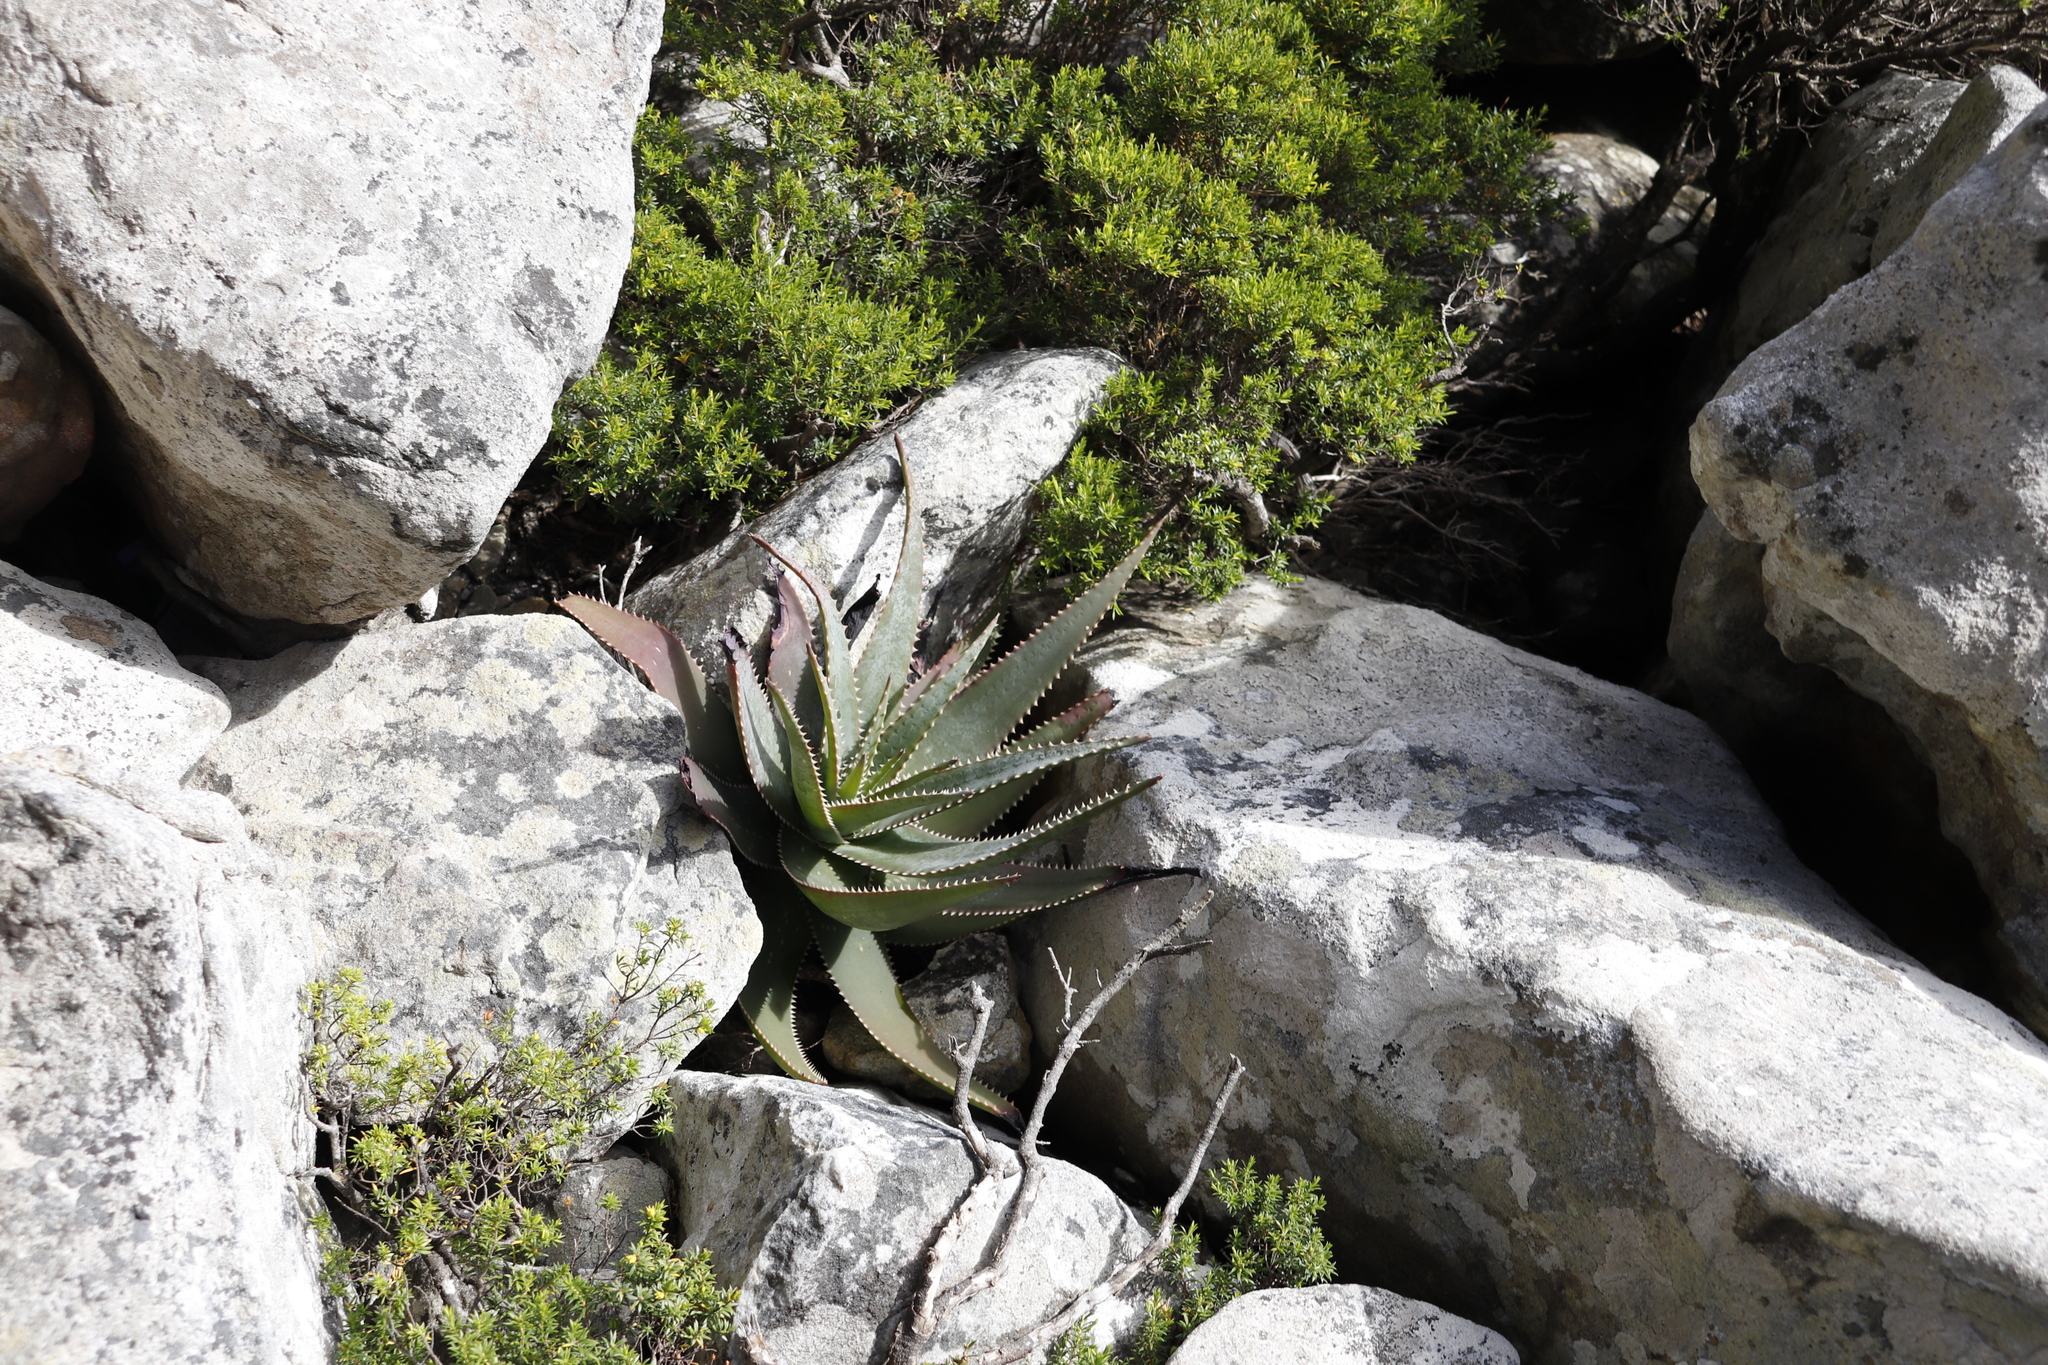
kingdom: Plantae
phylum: Tracheophyta
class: Liliopsida
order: Asparagales
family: Asphodelaceae
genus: Aloe
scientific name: Aloe succotrina
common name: Bombay aloe
